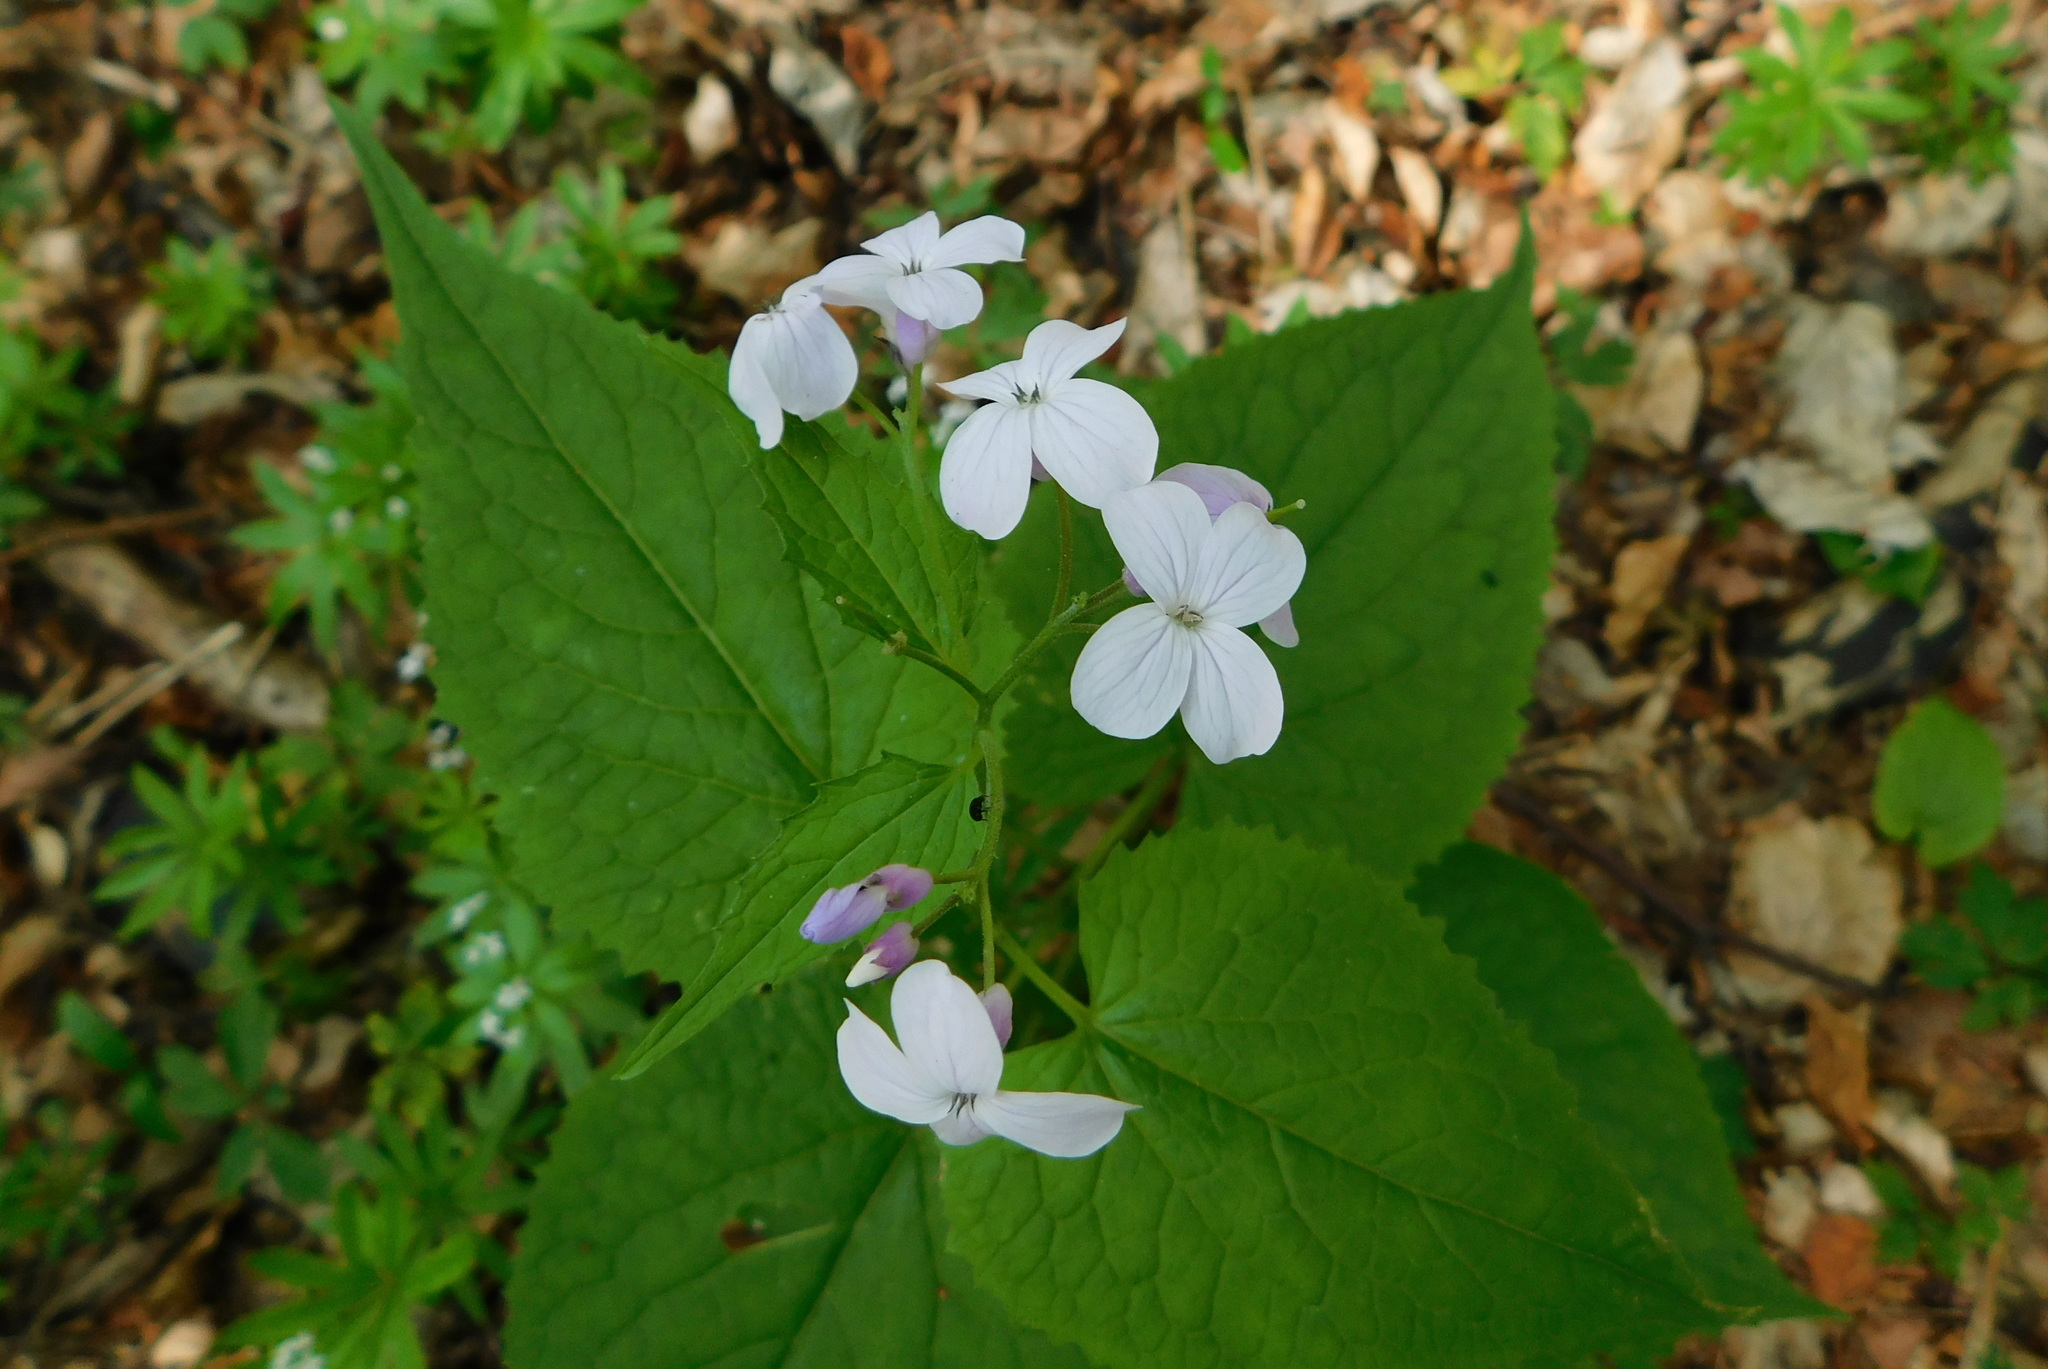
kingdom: Plantae
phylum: Tracheophyta
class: Magnoliopsida
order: Brassicales
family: Brassicaceae
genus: Lunaria
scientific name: Lunaria rediviva
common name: Perennial honesty
